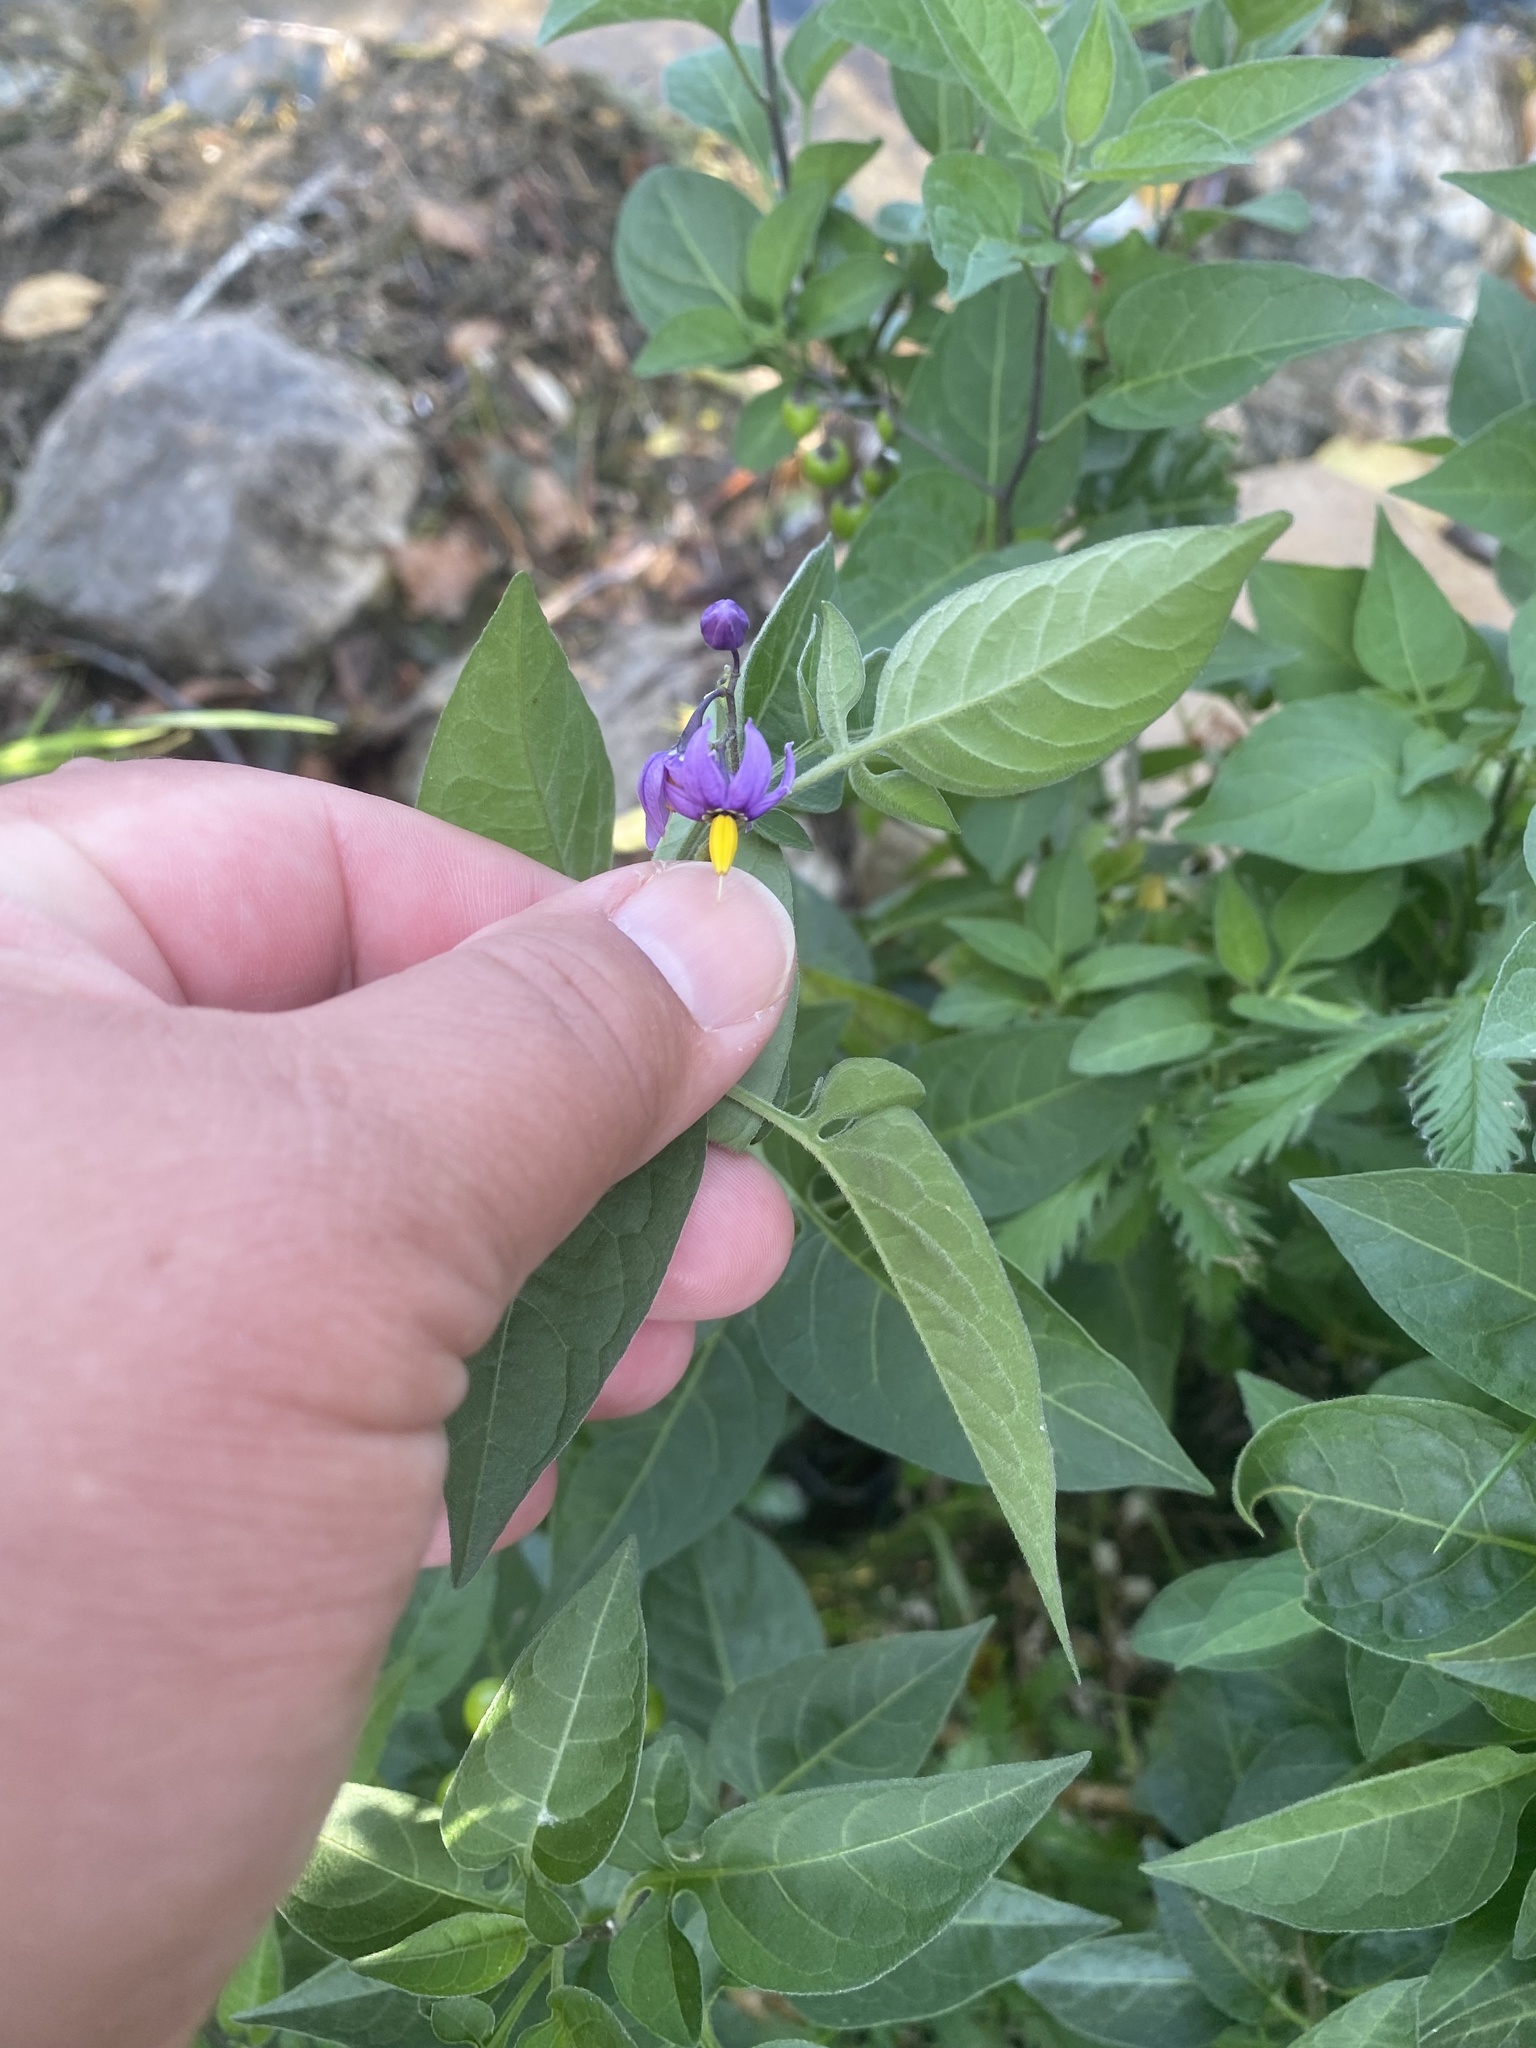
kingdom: Plantae
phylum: Tracheophyta
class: Magnoliopsida
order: Solanales
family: Solanaceae
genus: Solanum
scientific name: Solanum dulcamara
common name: Climbing nightshade
